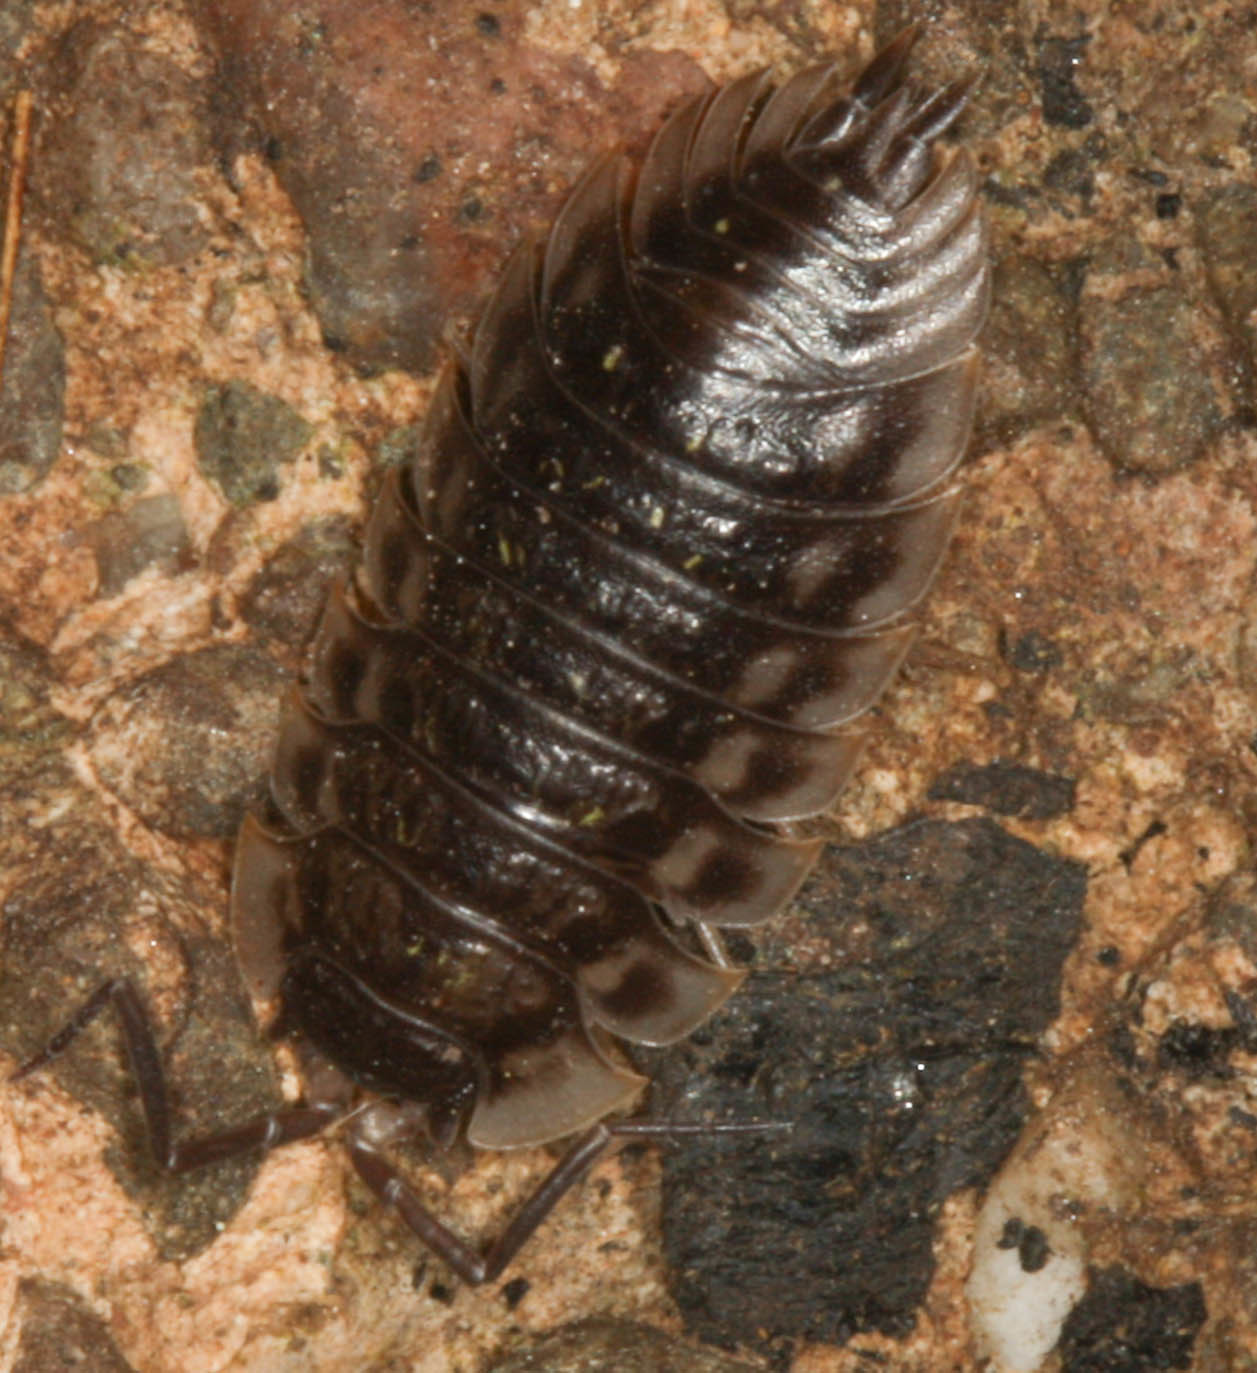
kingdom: Animalia
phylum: Arthropoda
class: Malacostraca
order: Isopoda
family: Oniscidae
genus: Oniscus
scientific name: Oniscus asellus
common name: Common shiny woodlouse
